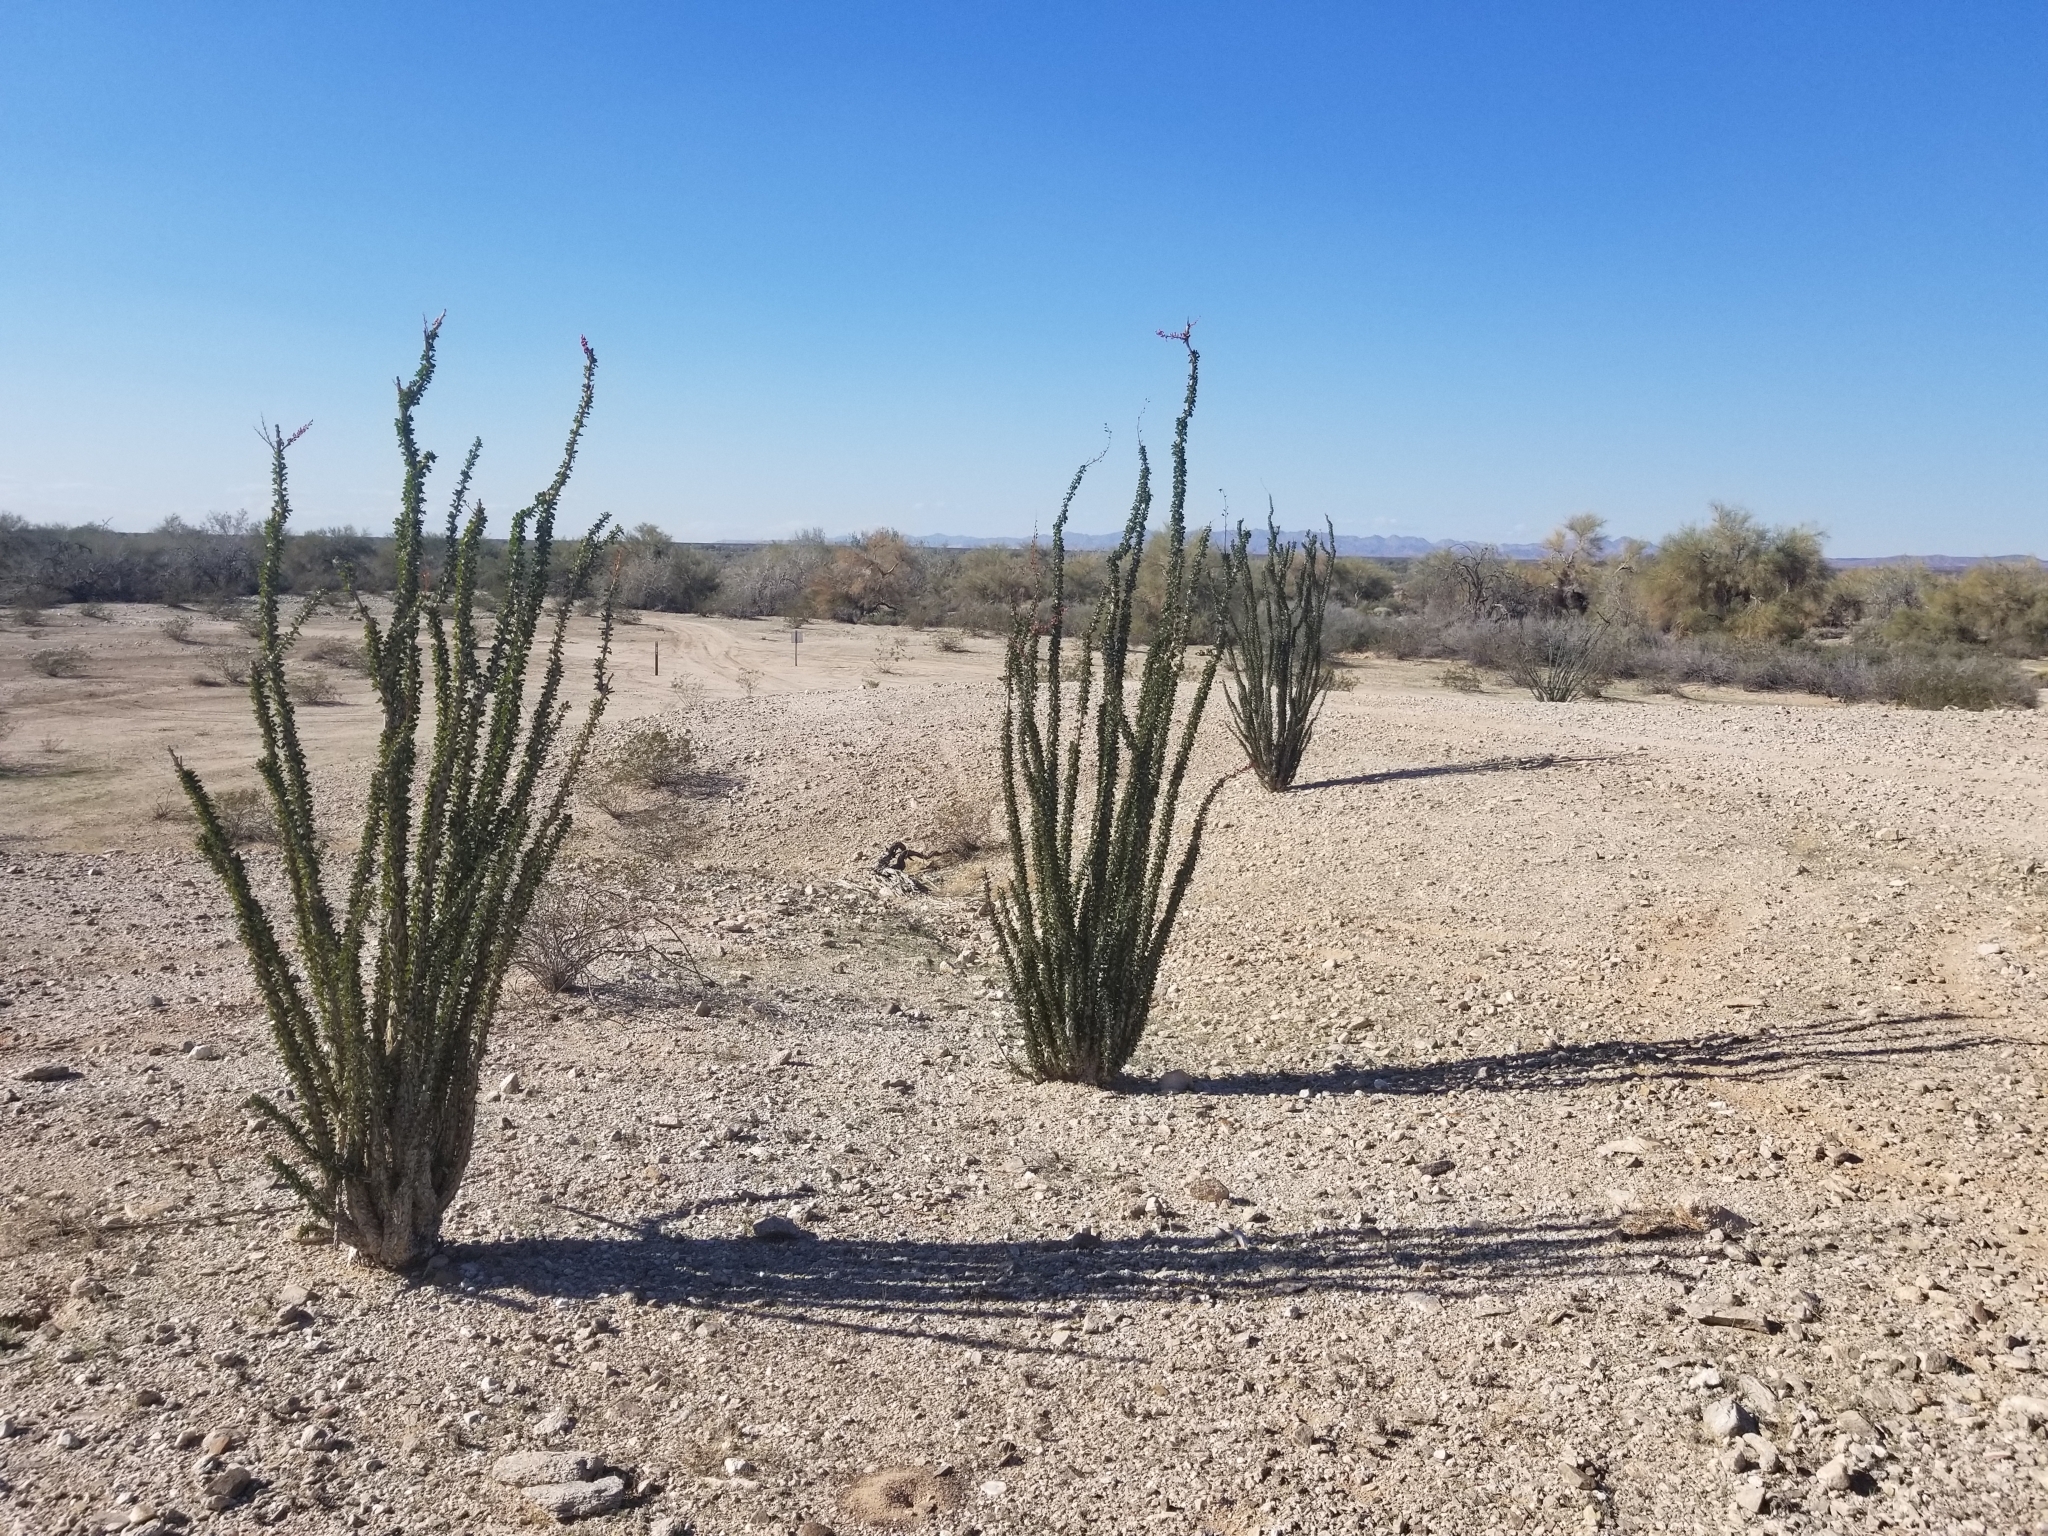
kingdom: Plantae
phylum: Tracheophyta
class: Magnoliopsida
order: Ericales
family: Fouquieriaceae
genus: Fouquieria
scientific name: Fouquieria splendens
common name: Vine-cactus
